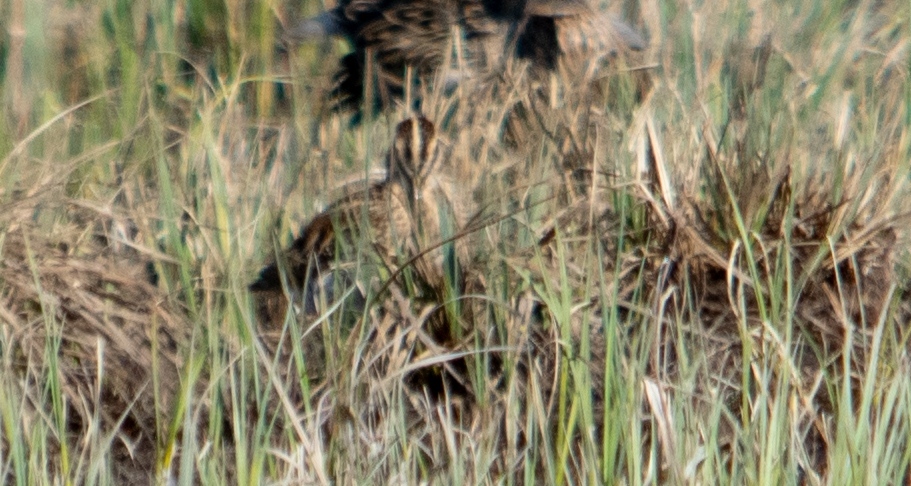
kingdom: Animalia
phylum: Chordata
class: Aves
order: Charadriiformes
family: Scolopacidae
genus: Gallinago
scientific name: Gallinago gallinago
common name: Common snipe
